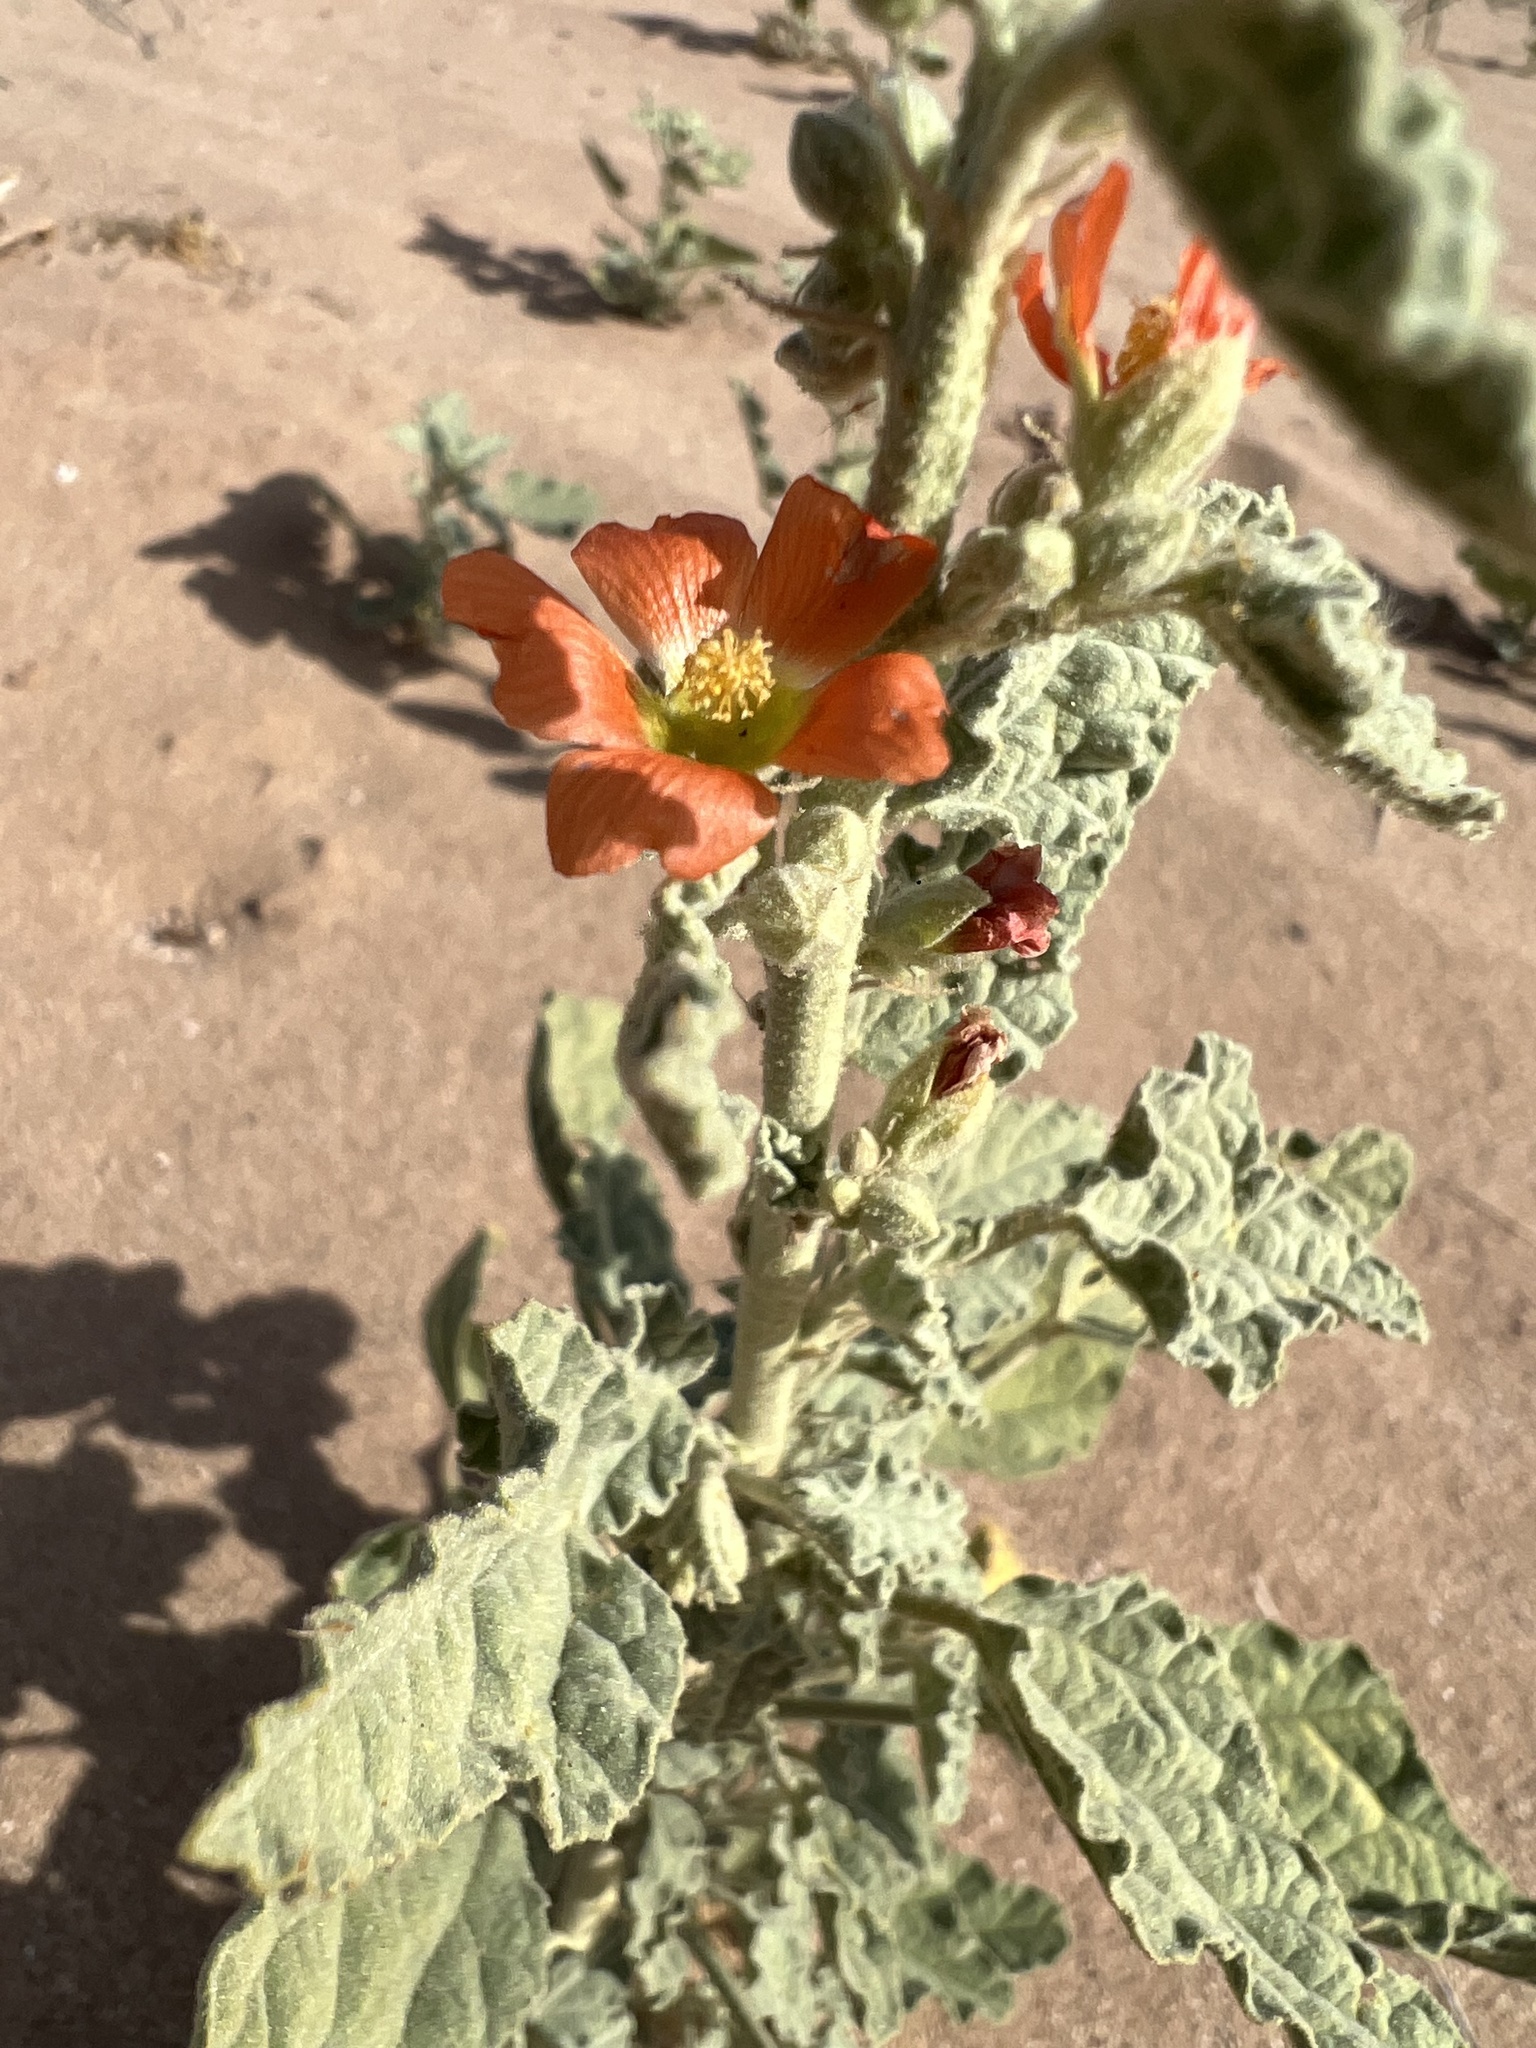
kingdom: Plantae
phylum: Tracheophyta
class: Magnoliopsida
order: Malvales
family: Malvaceae
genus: Sphaeralcea
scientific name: Sphaeralcea ambigua
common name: Apricot globe-mallow
